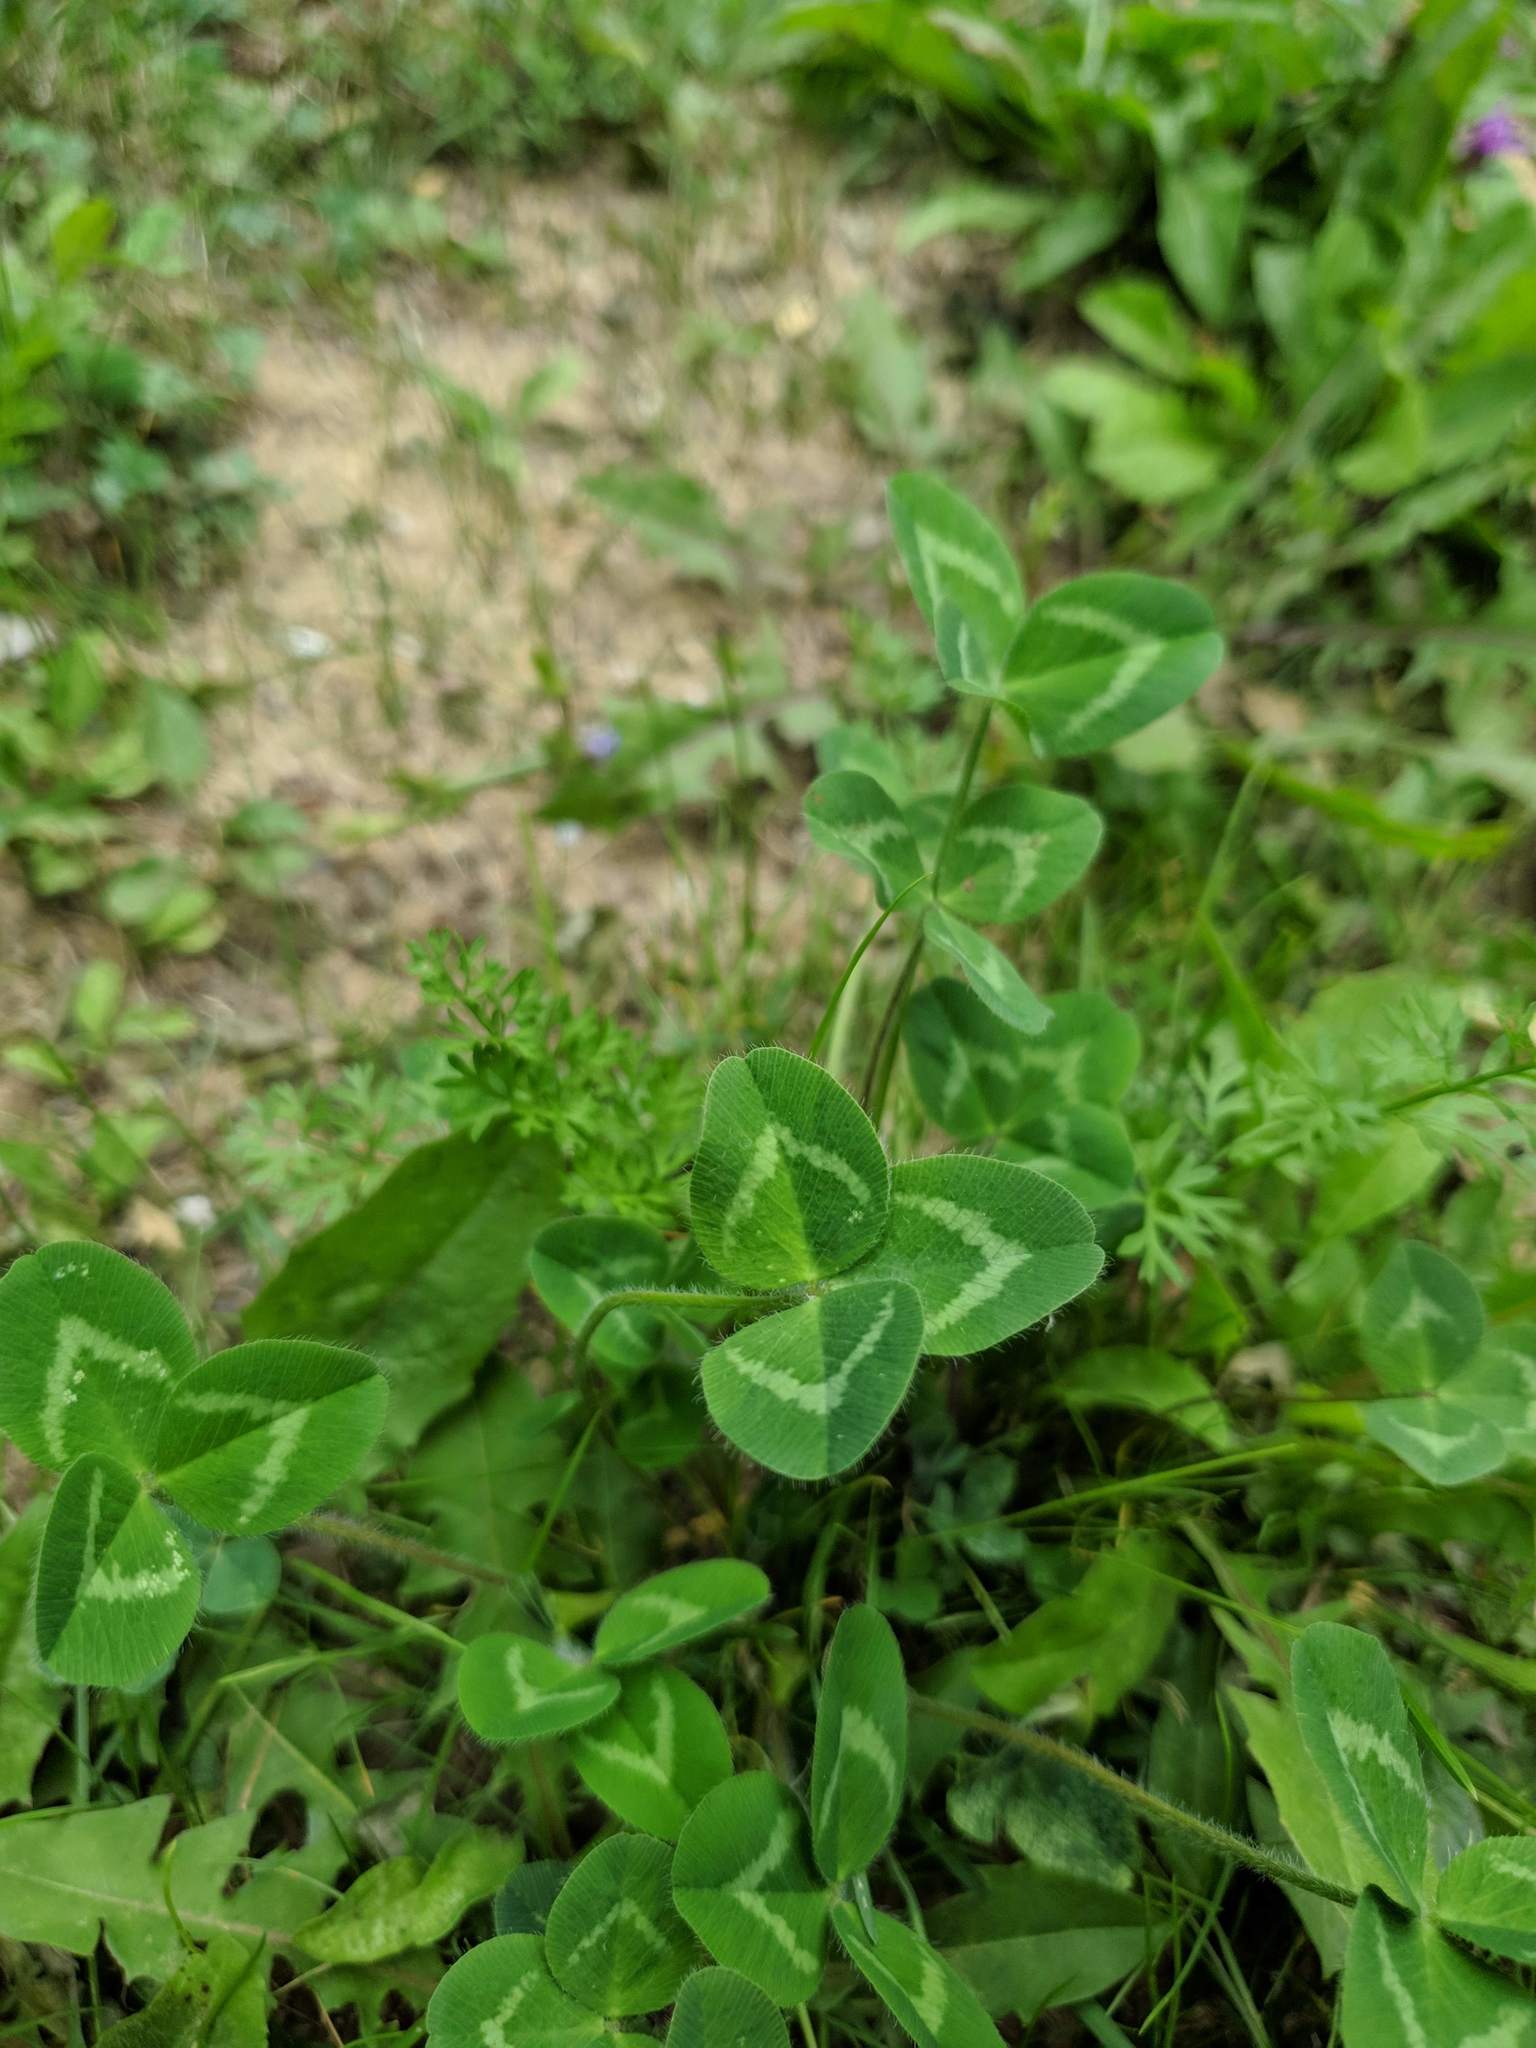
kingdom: Plantae
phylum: Tracheophyta
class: Magnoliopsida
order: Fabales
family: Fabaceae
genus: Trifolium
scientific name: Trifolium pratense
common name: Red clover
